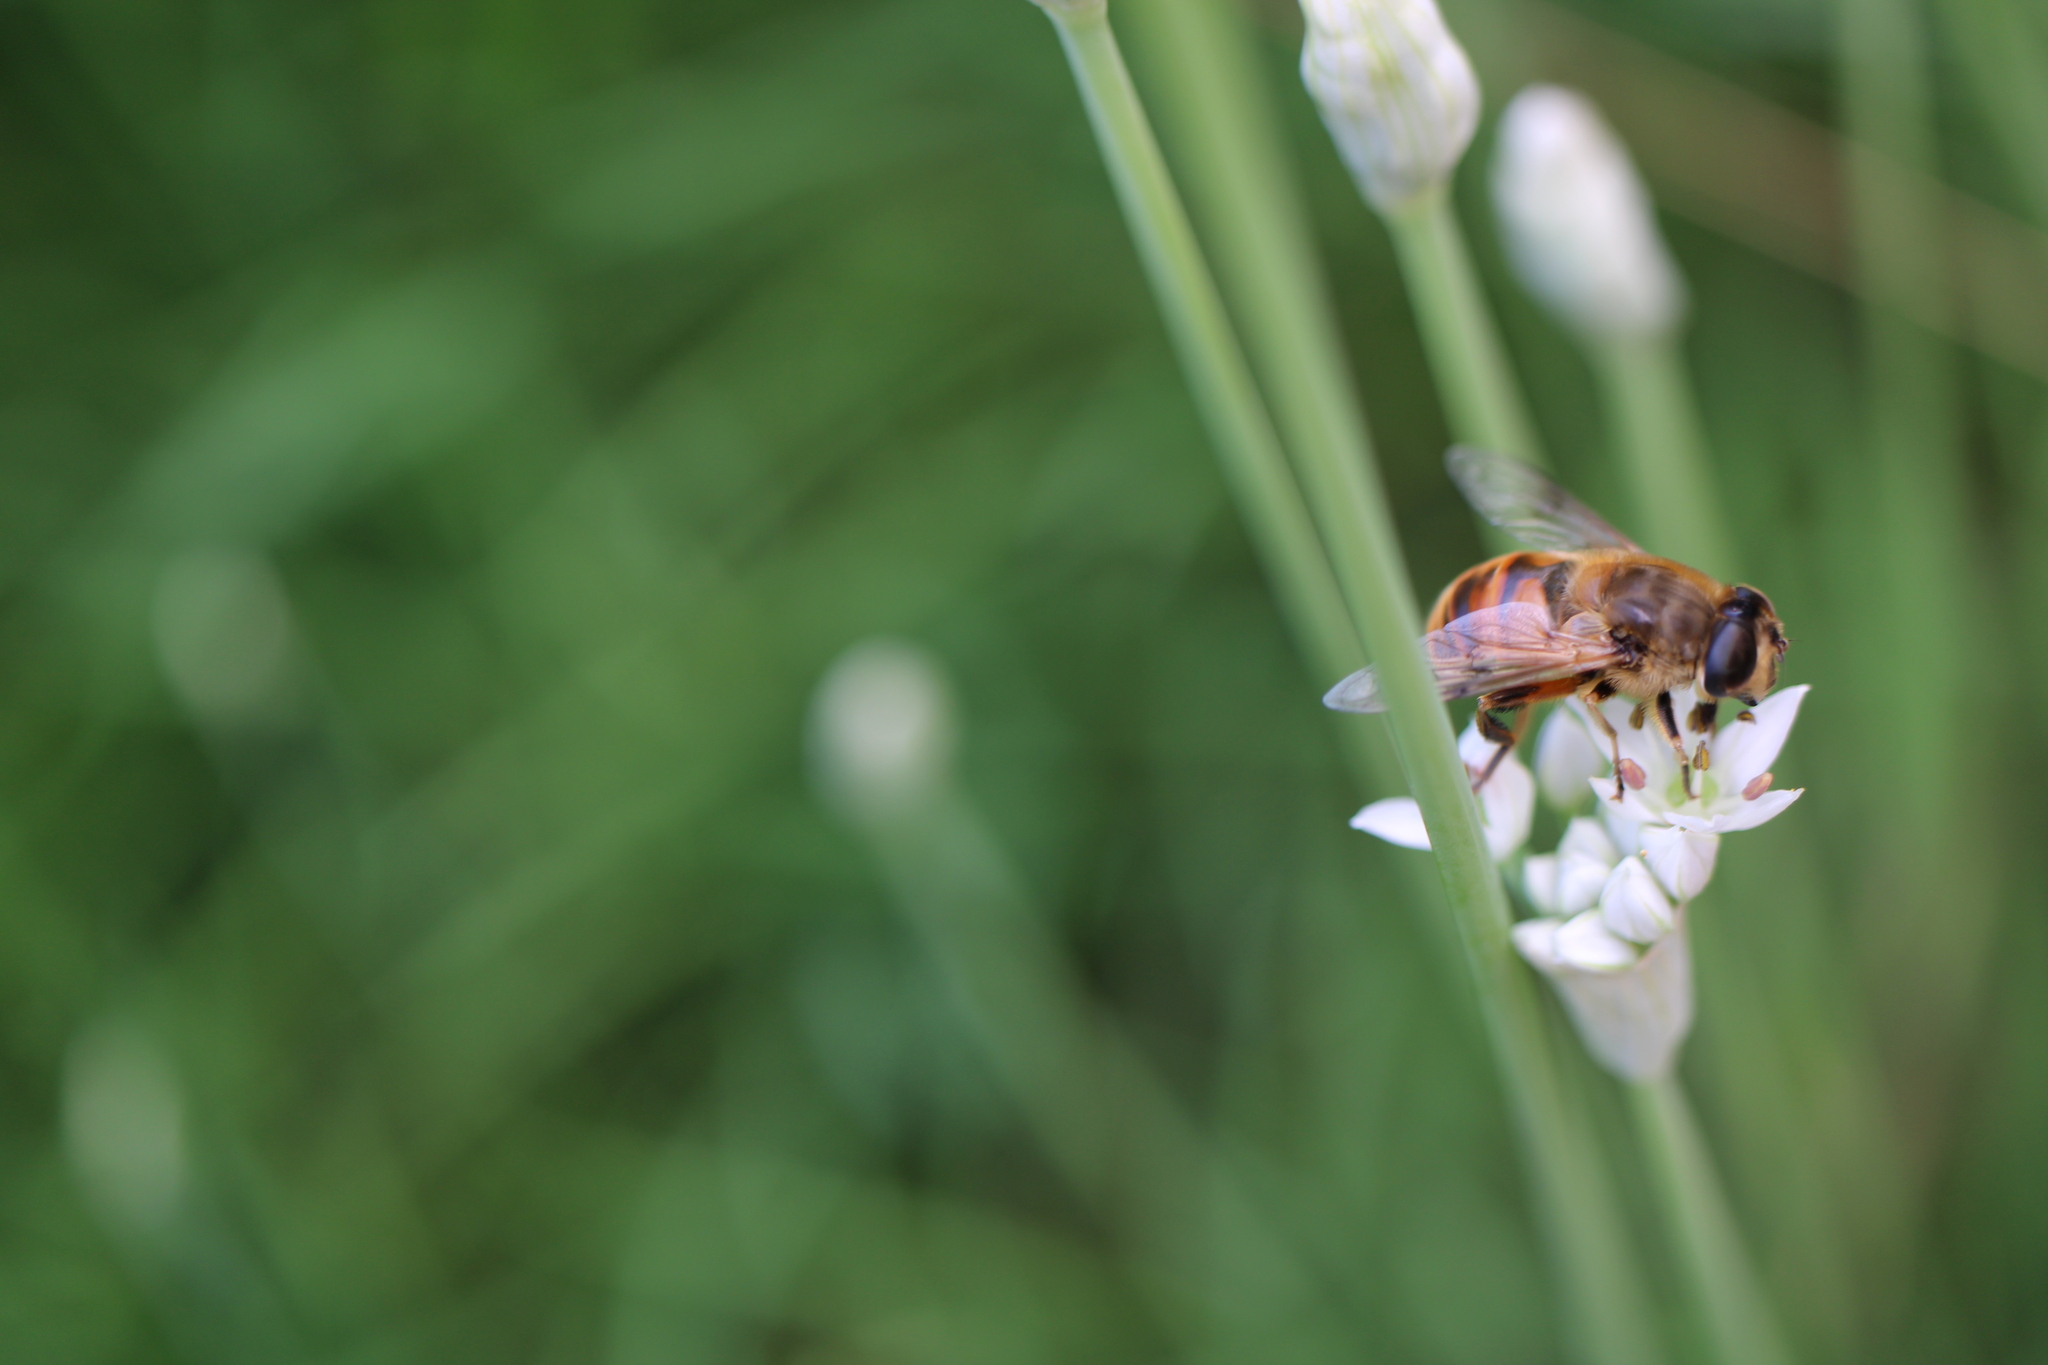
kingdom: Animalia
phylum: Arthropoda
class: Insecta
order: Diptera
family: Syrphidae
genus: Eristalis
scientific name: Eristalis tenax
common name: Drone fly
